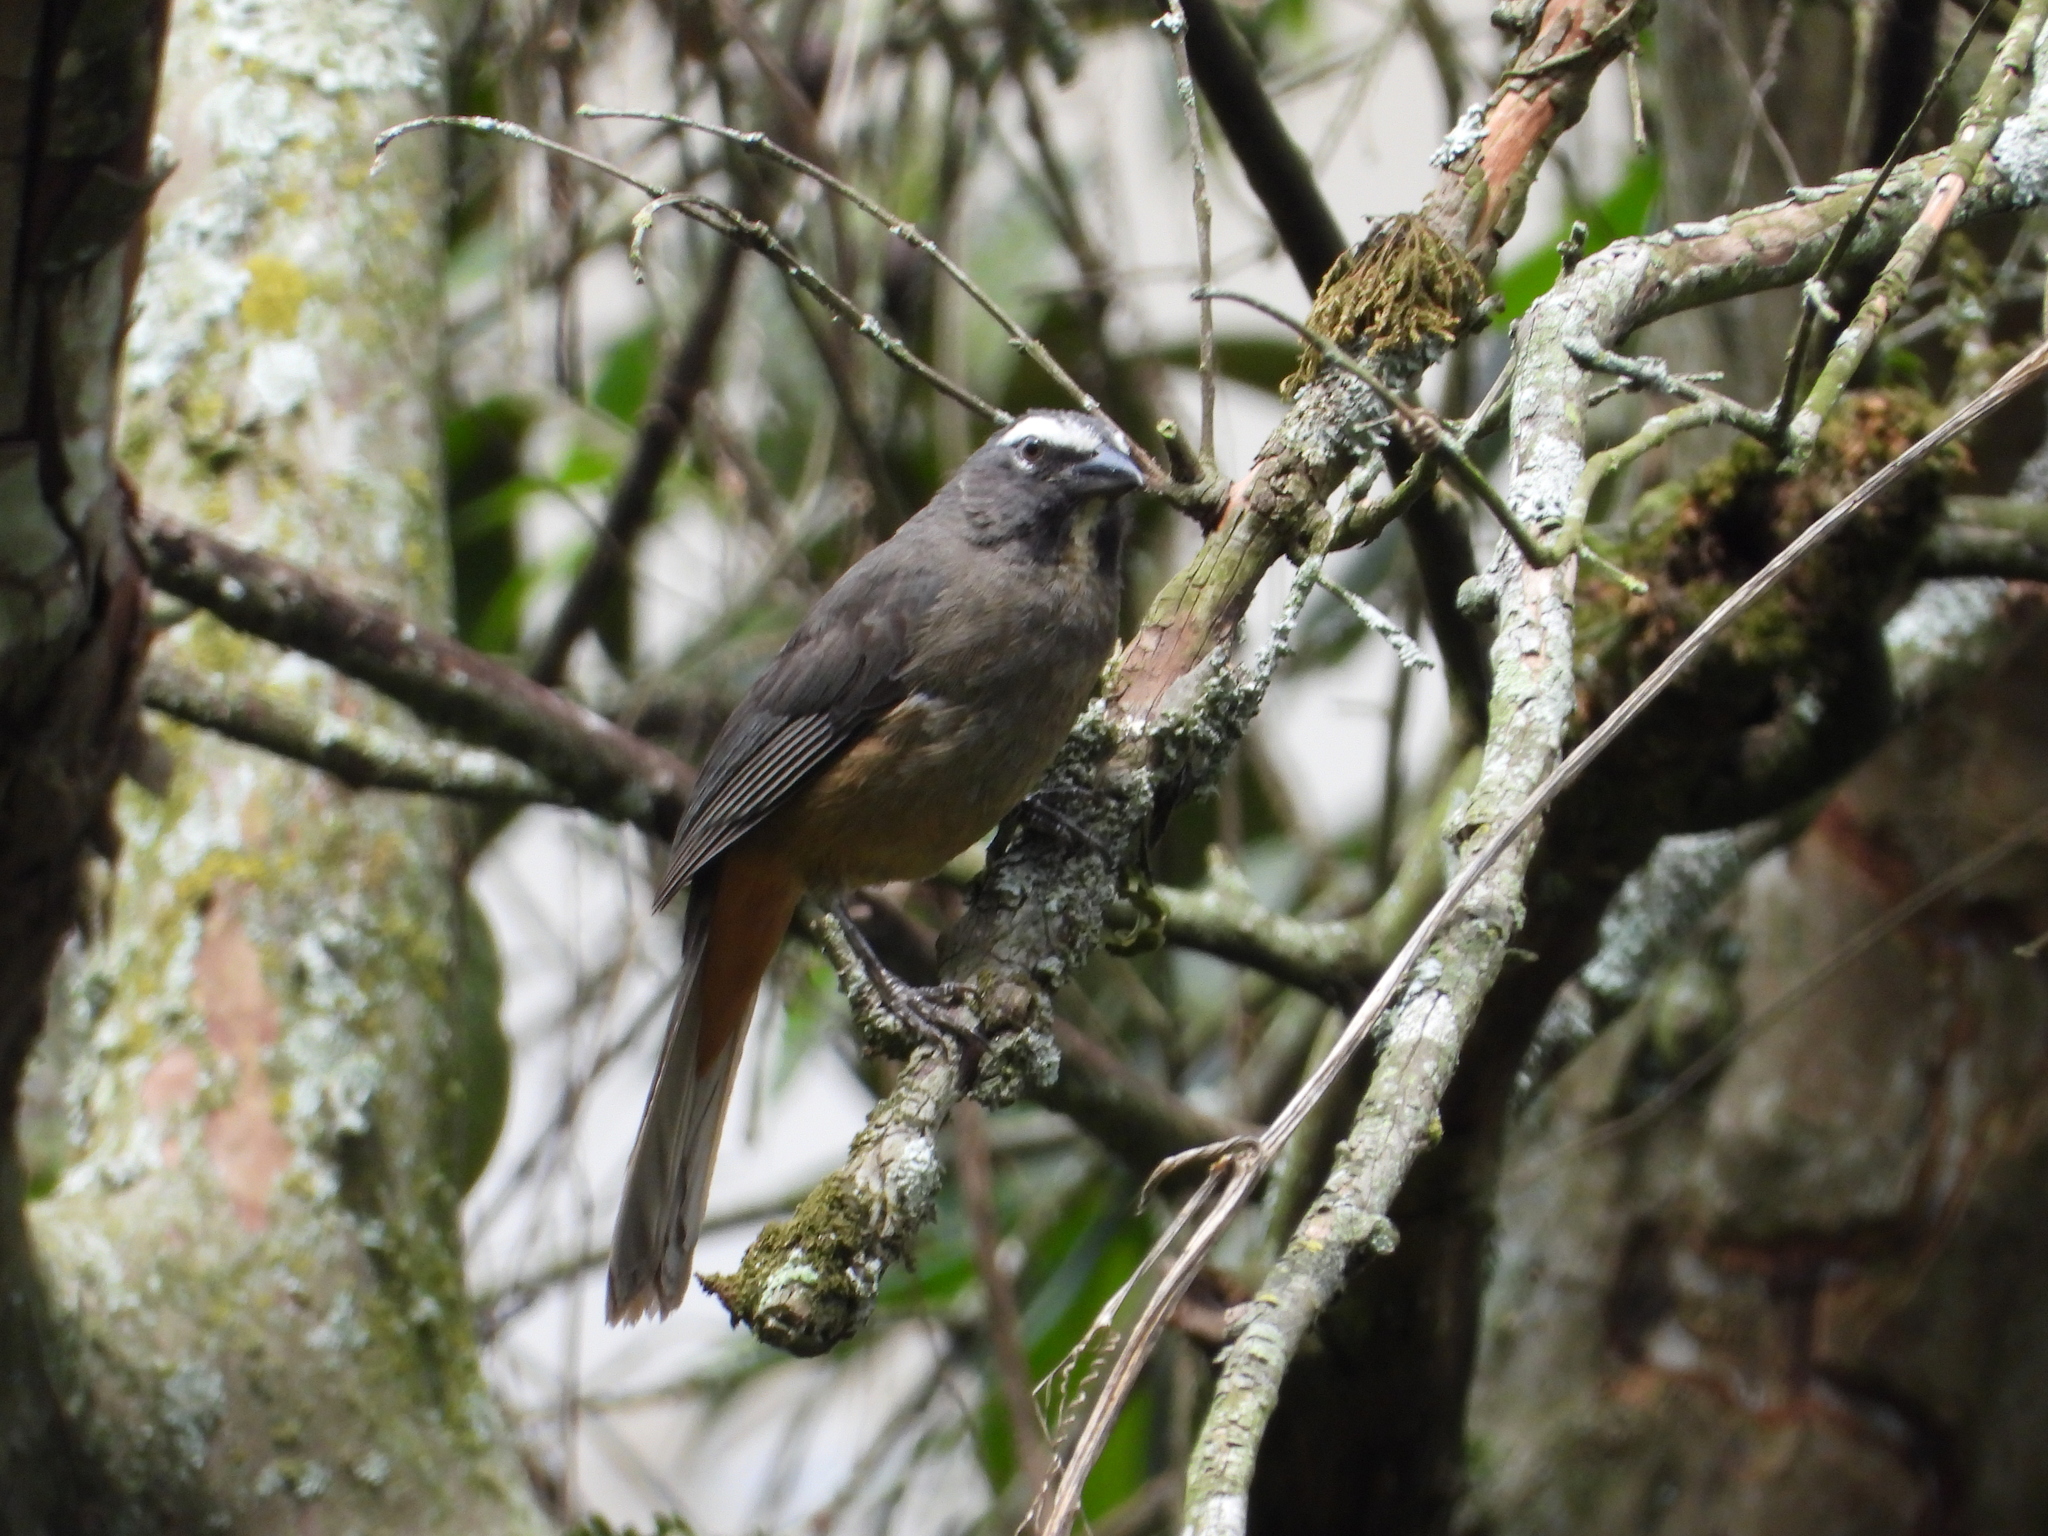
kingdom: Animalia
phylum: Chordata
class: Aves
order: Passeriformes
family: Thraupidae
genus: Saltator
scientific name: Saltator grandis
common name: Cinnamon-bellied saltator
